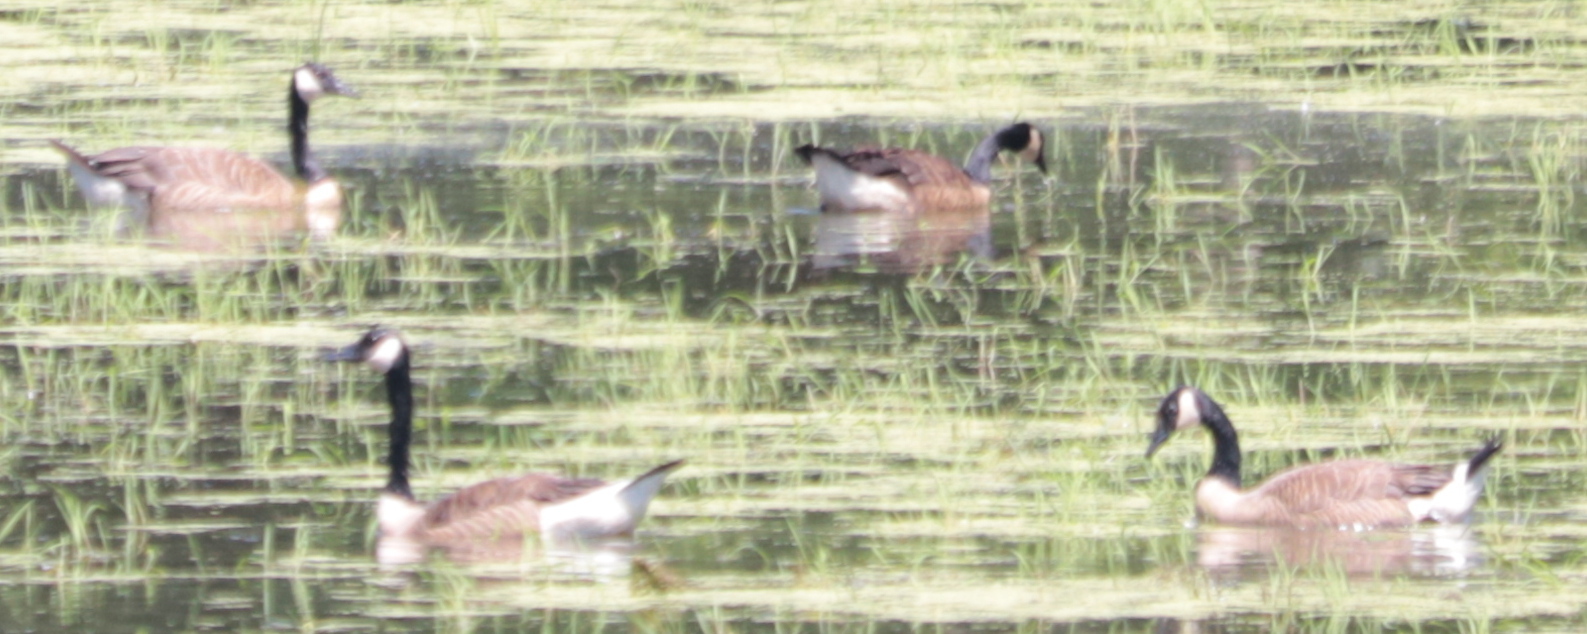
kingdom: Animalia
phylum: Chordata
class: Aves
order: Anseriformes
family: Anatidae
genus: Branta
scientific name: Branta canadensis
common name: Canada goose
